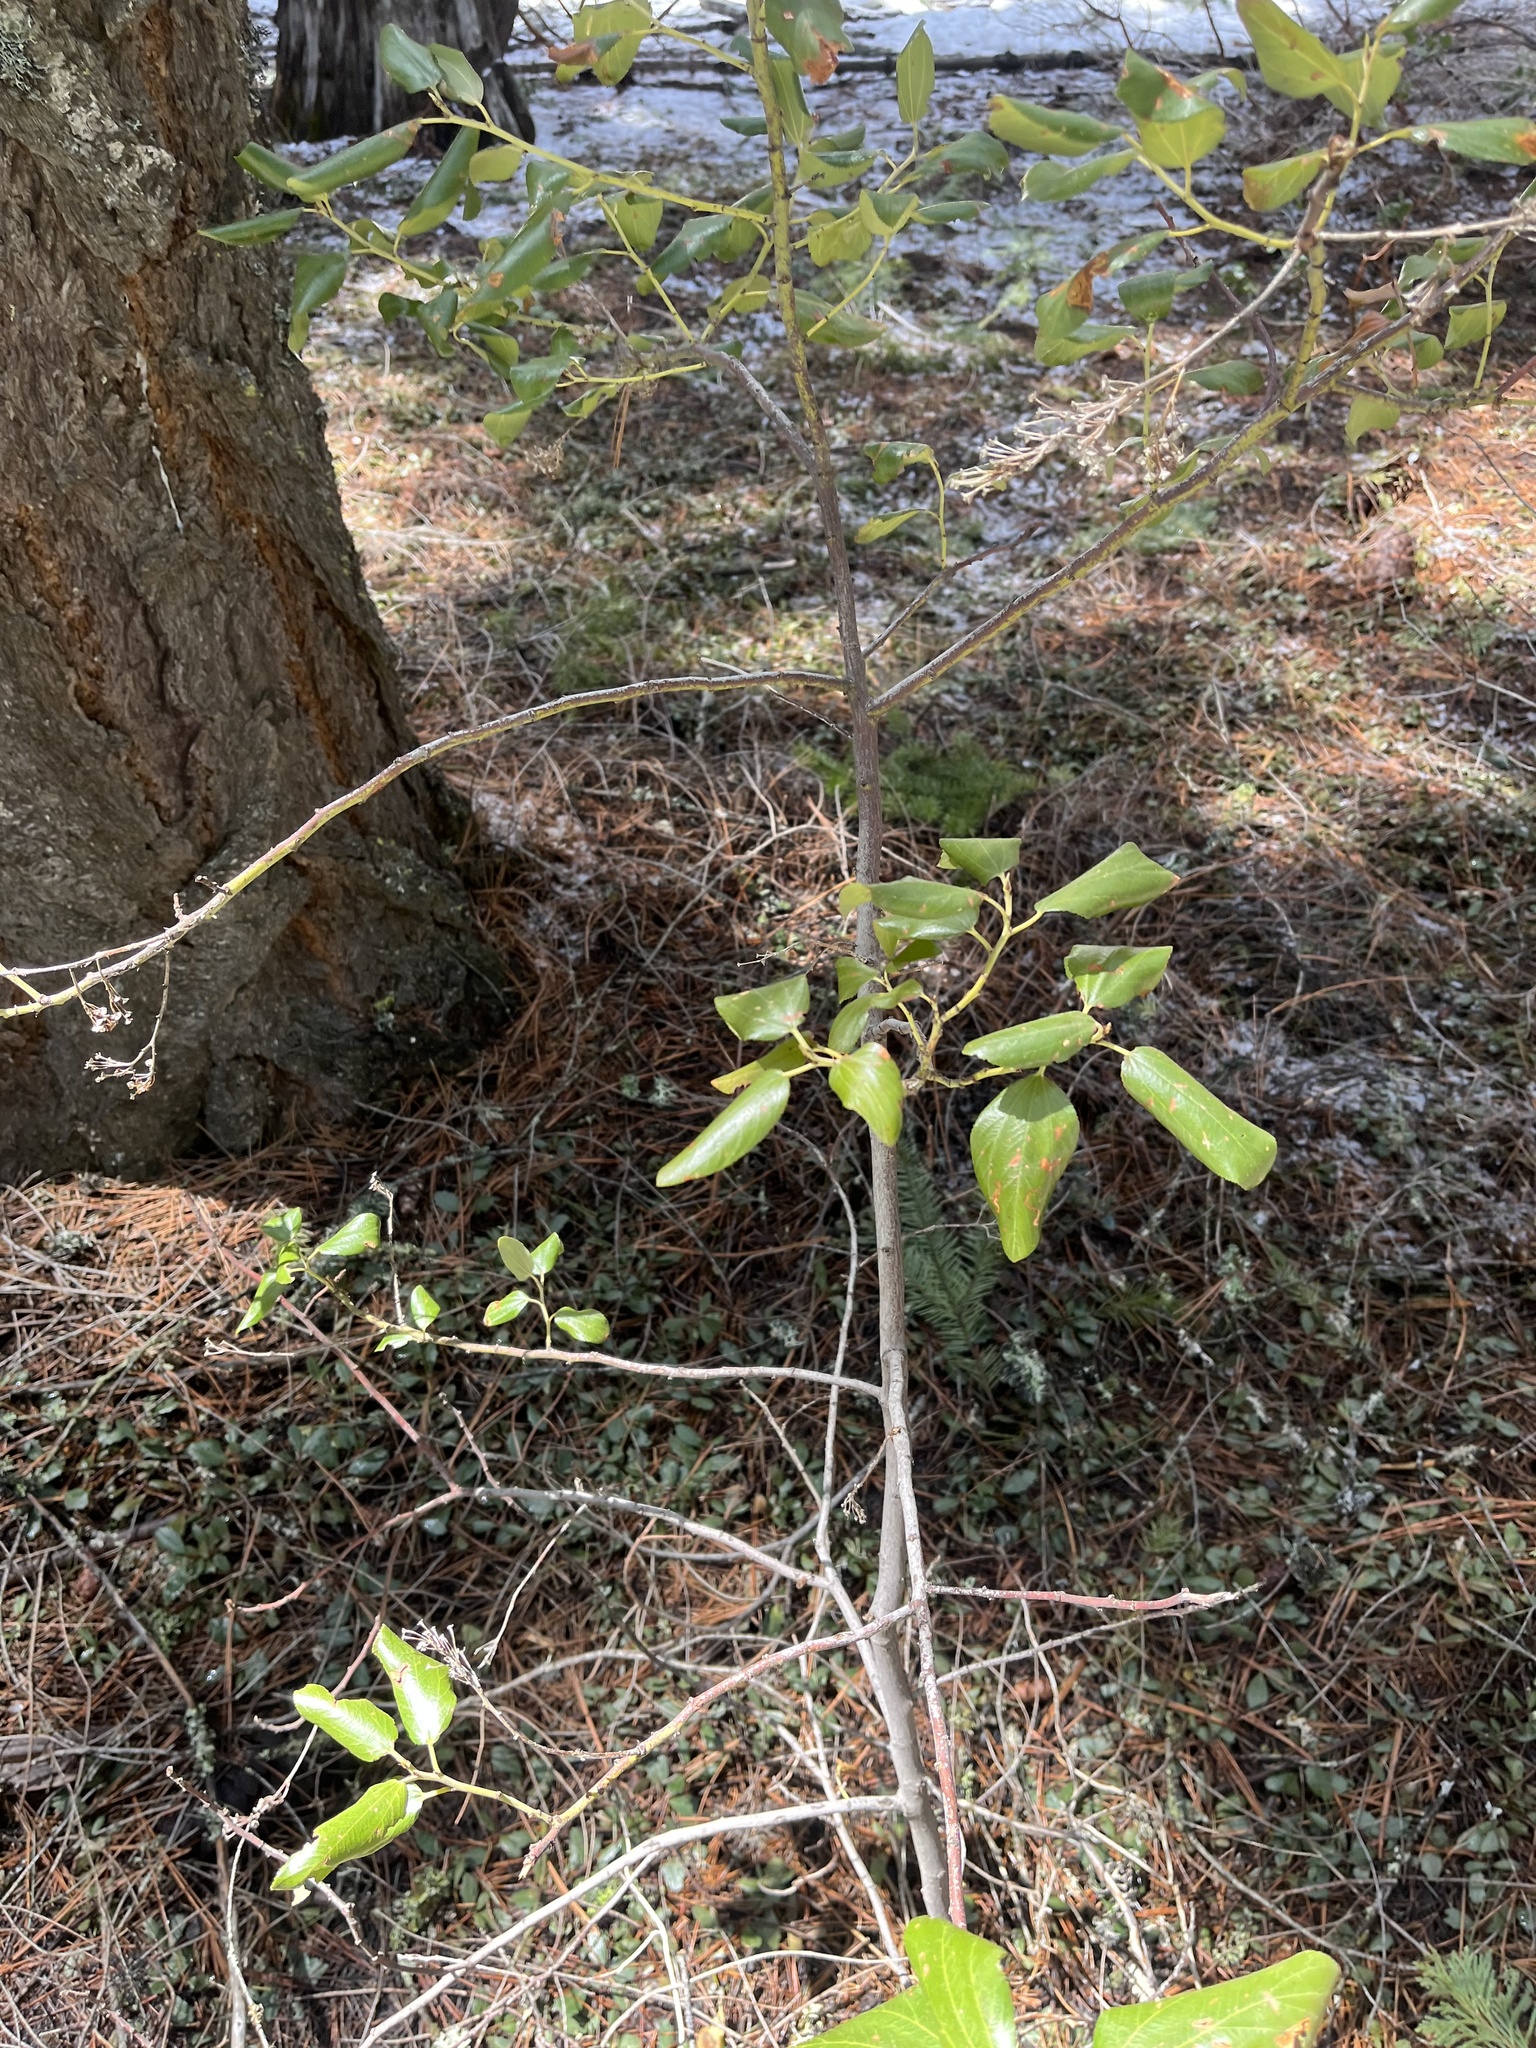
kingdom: Plantae
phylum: Tracheophyta
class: Magnoliopsida
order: Rosales
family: Rhamnaceae
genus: Ceanothus
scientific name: Ceanothus velutinus
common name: Snowbrush
